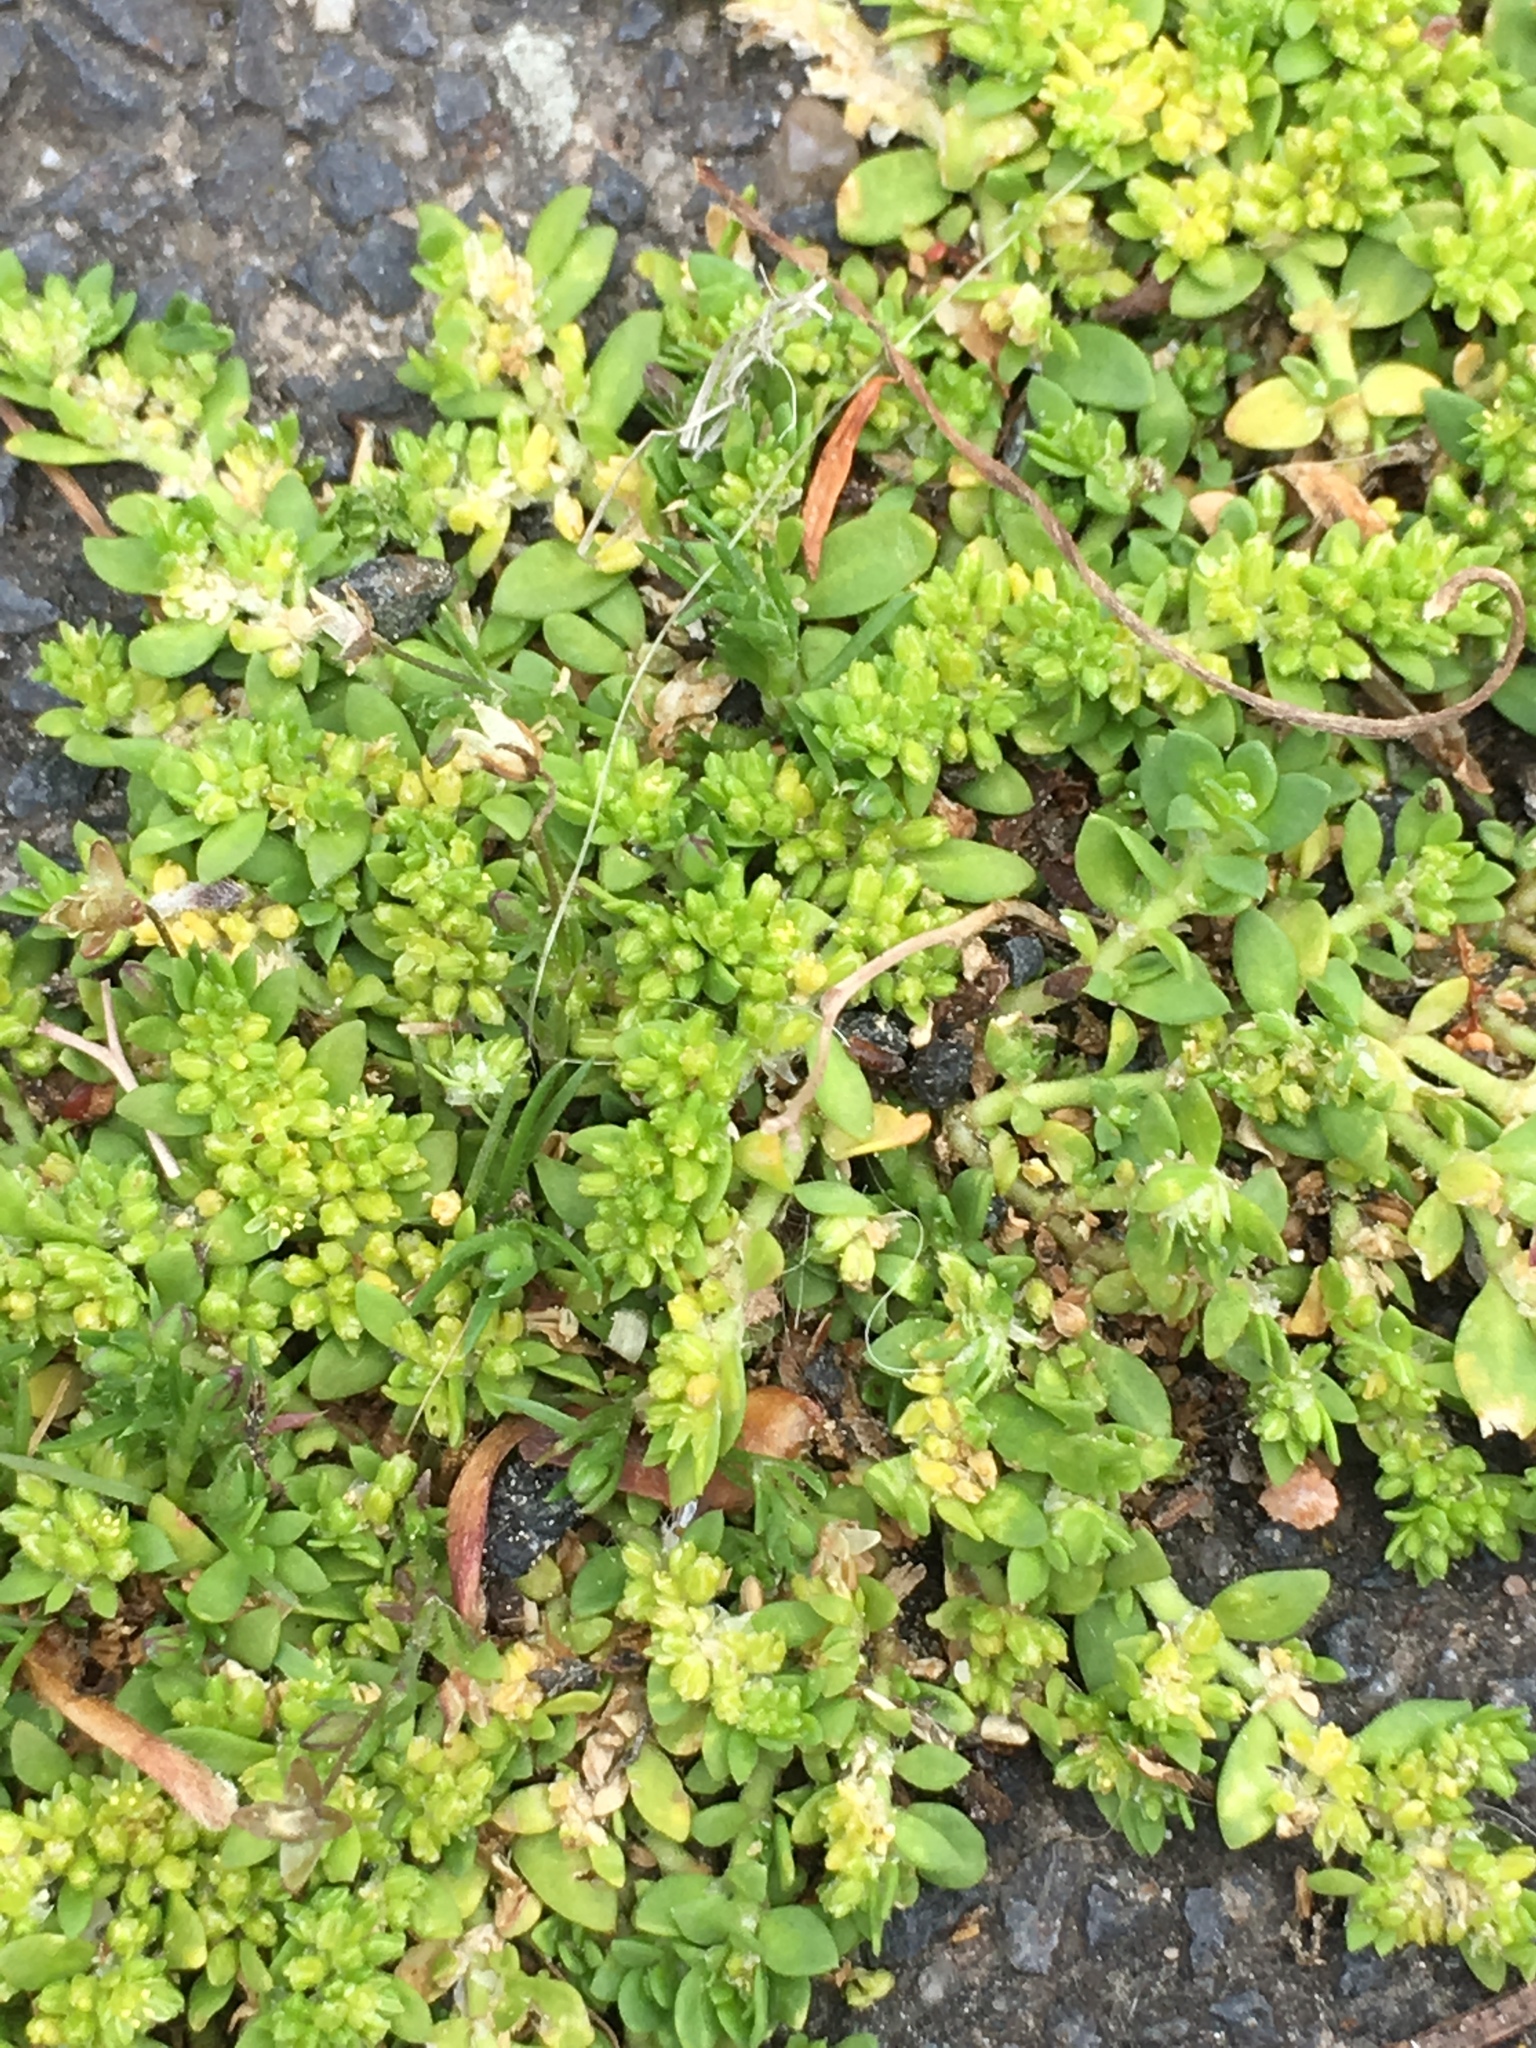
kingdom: Plantae
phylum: Tracheophyta
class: Magnoliopsida
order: Caryophyllales
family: Caryophyllaceae
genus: Herniaria
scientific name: Herniaria glabra
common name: Smooth rupturewort
